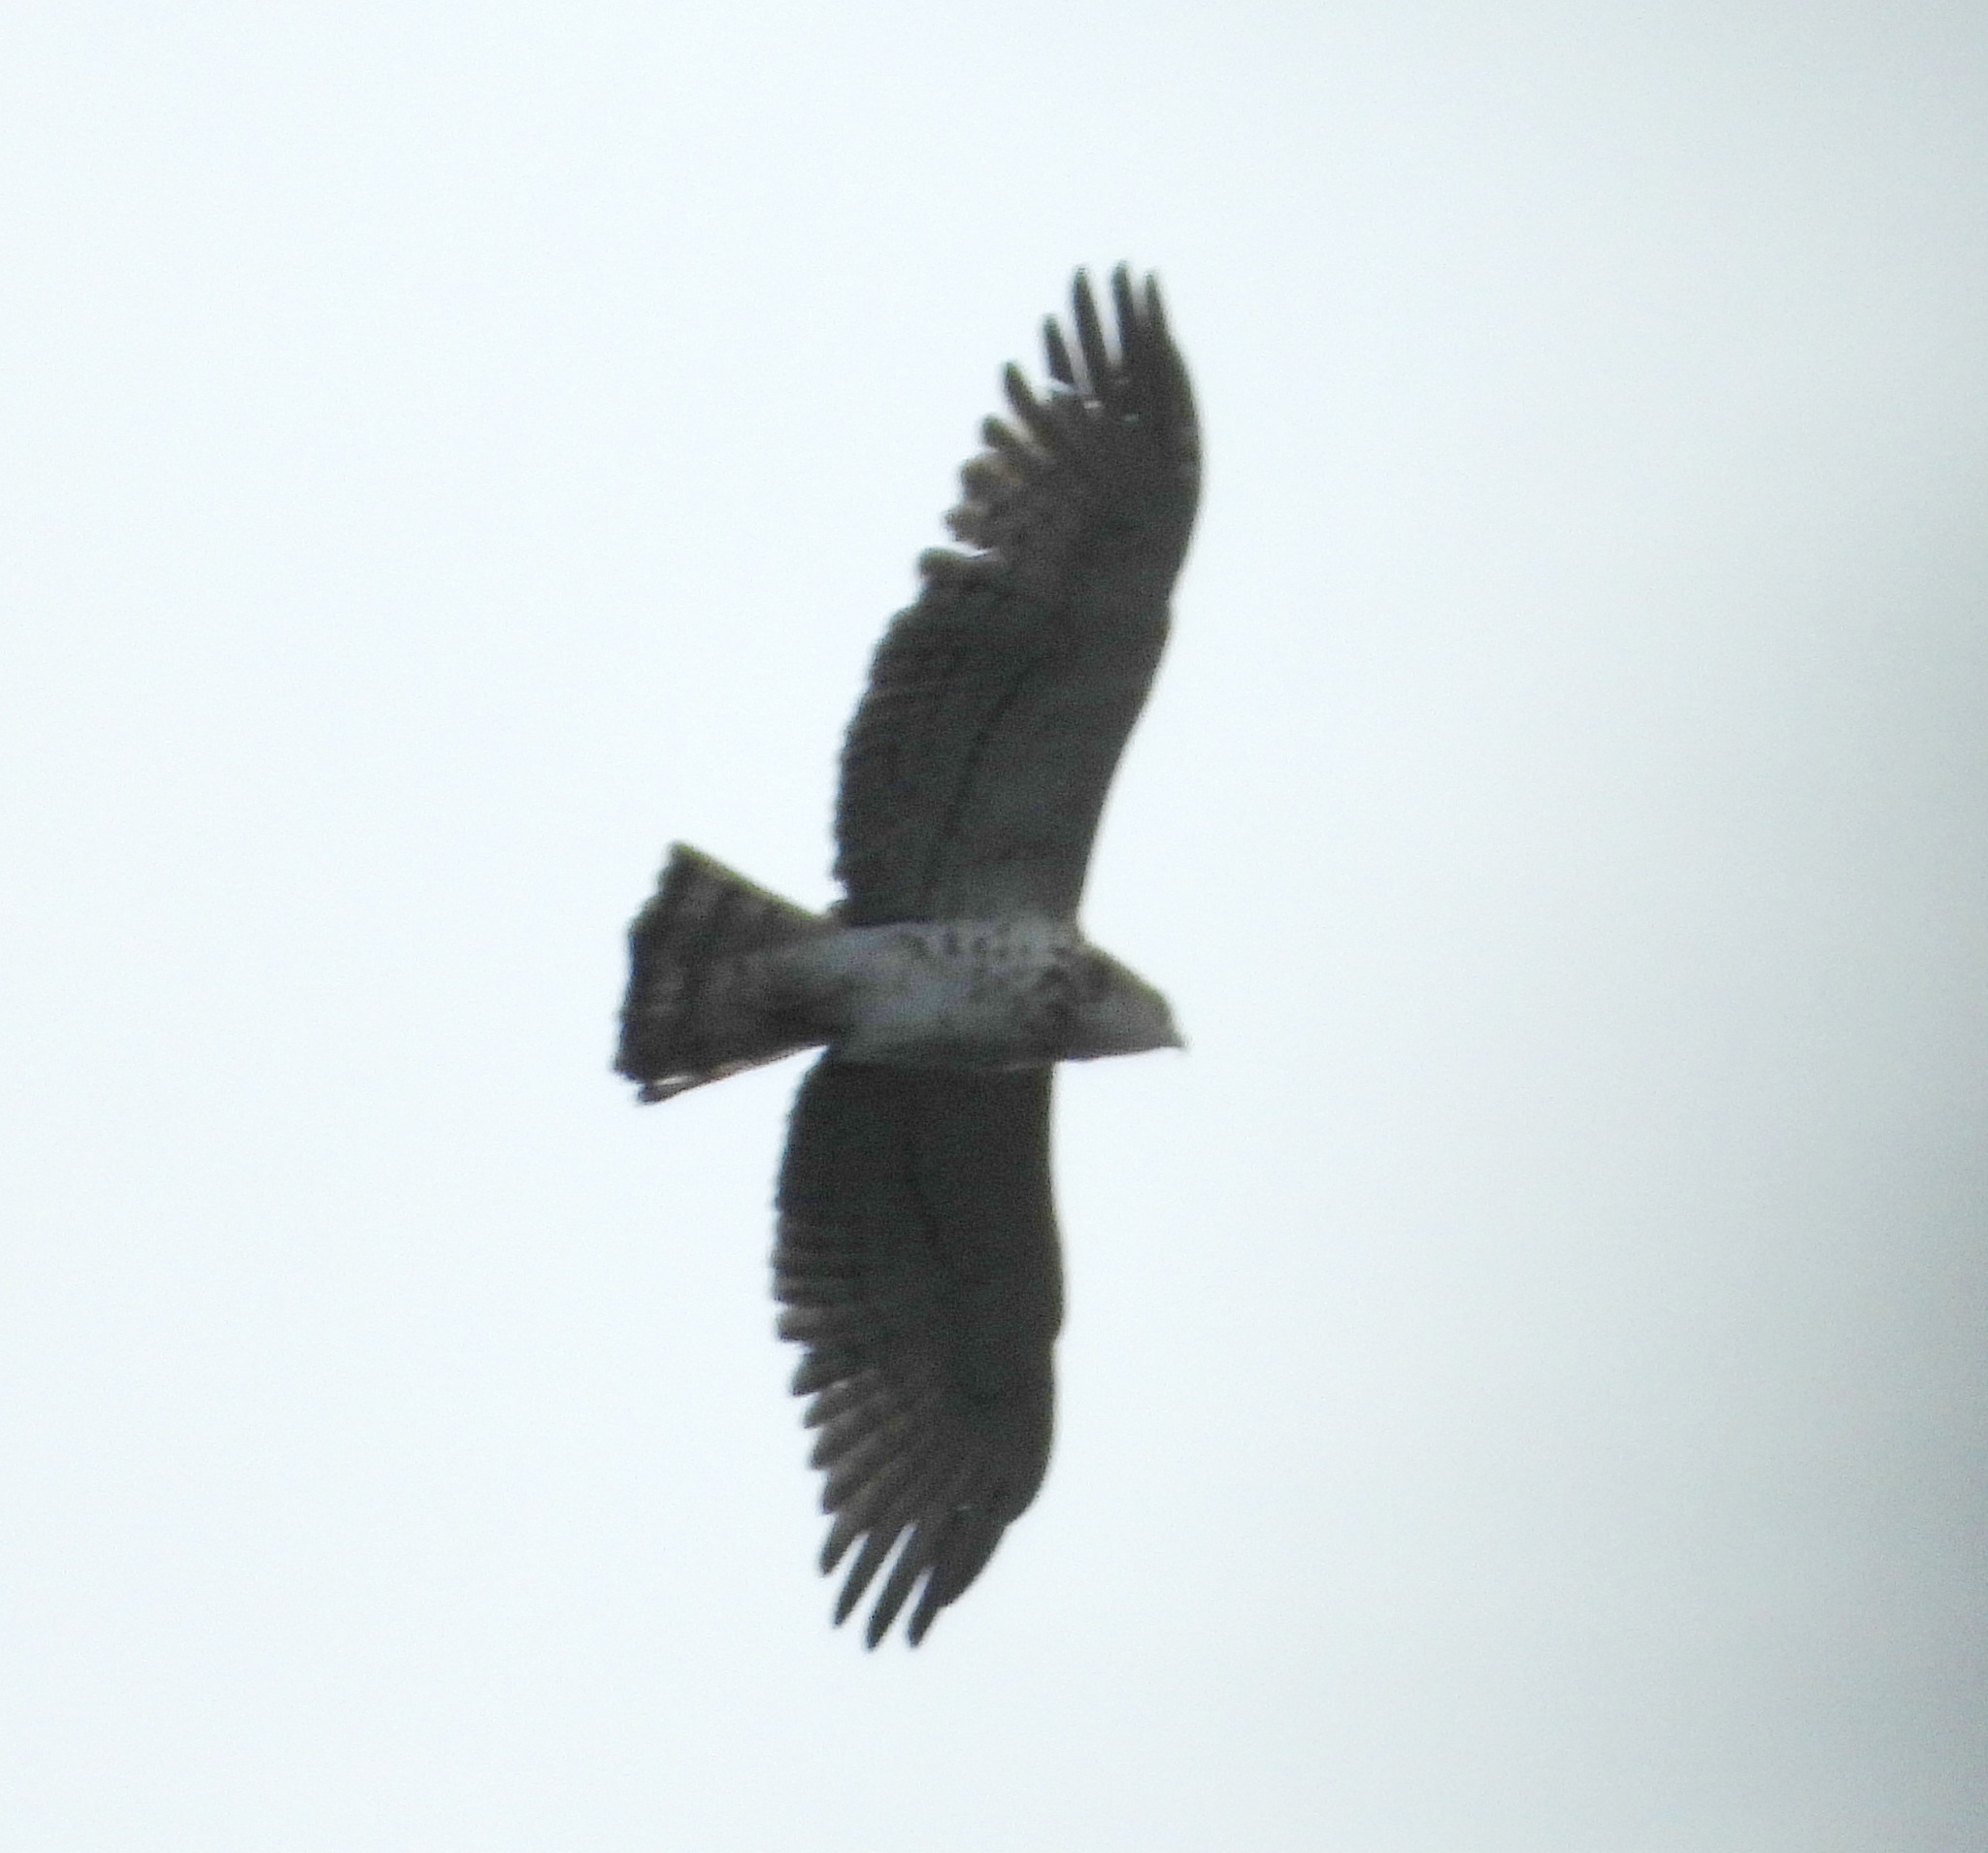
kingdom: Animalia
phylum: Chordata
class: Aves
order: Accipitriformes
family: Accipitridae
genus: Circaetus
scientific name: Circaetus gallicus
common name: Short-toed snake eagle
